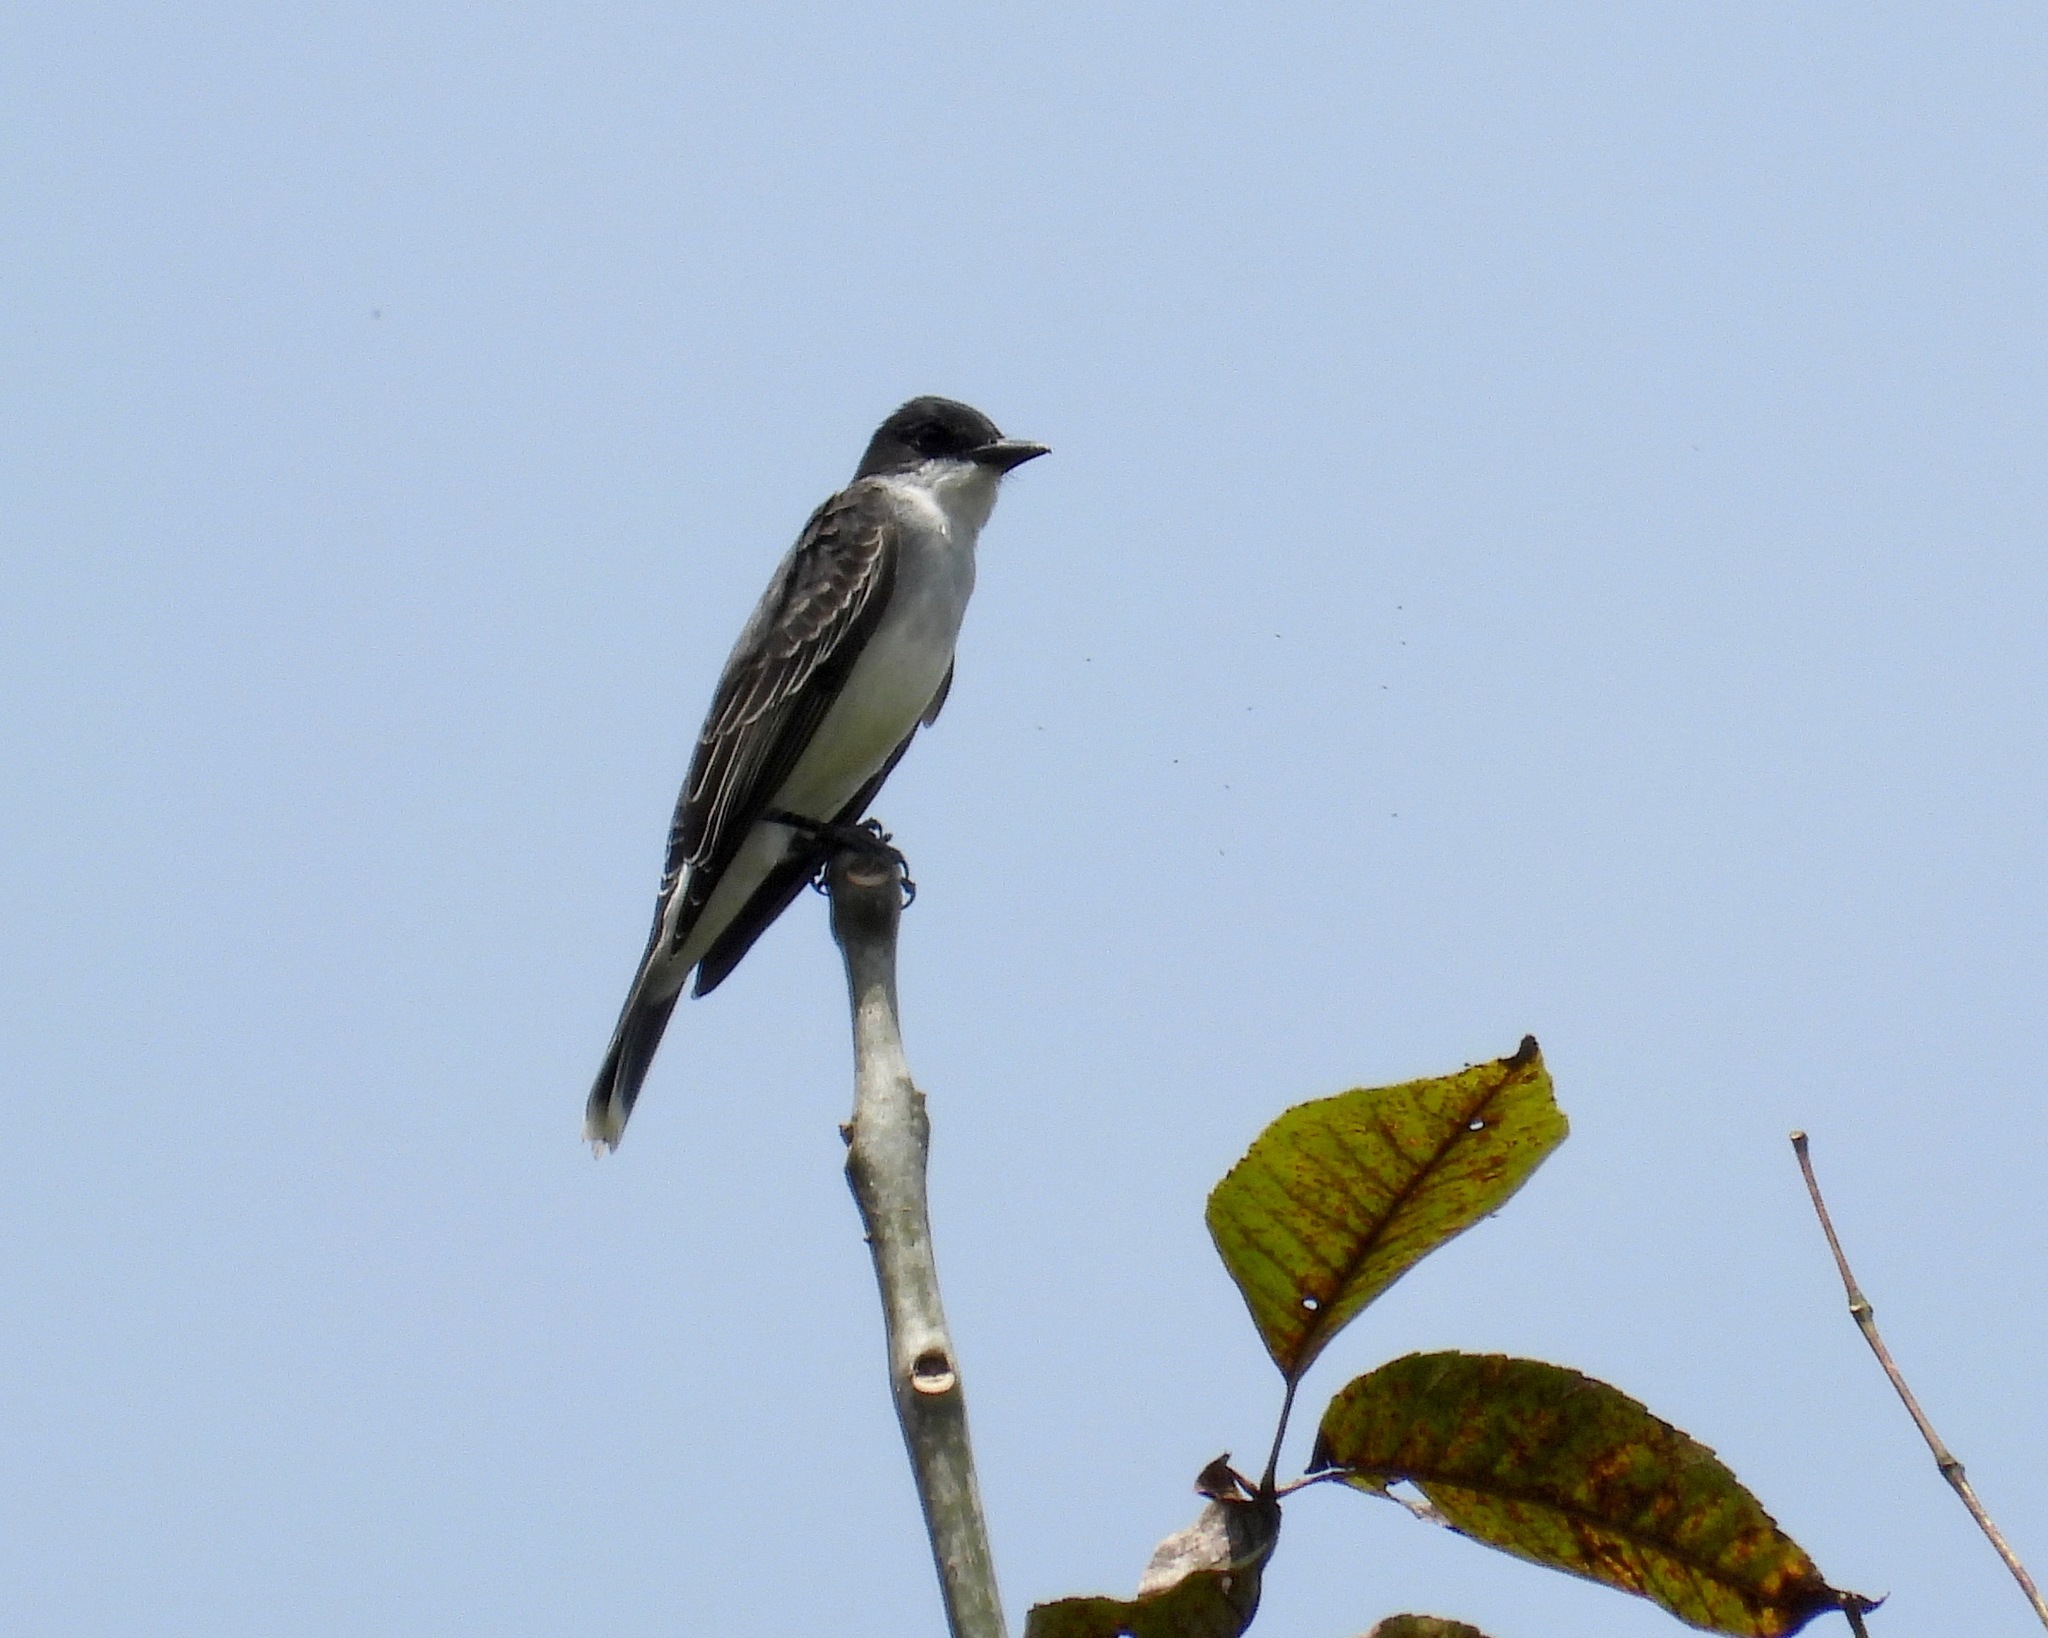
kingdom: Animalia
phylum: Chordata
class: Aves
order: Passeriformes
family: Tyrannidae
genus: Tyrannus
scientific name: Tyrannus tyrannus
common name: Eastern kingbird
